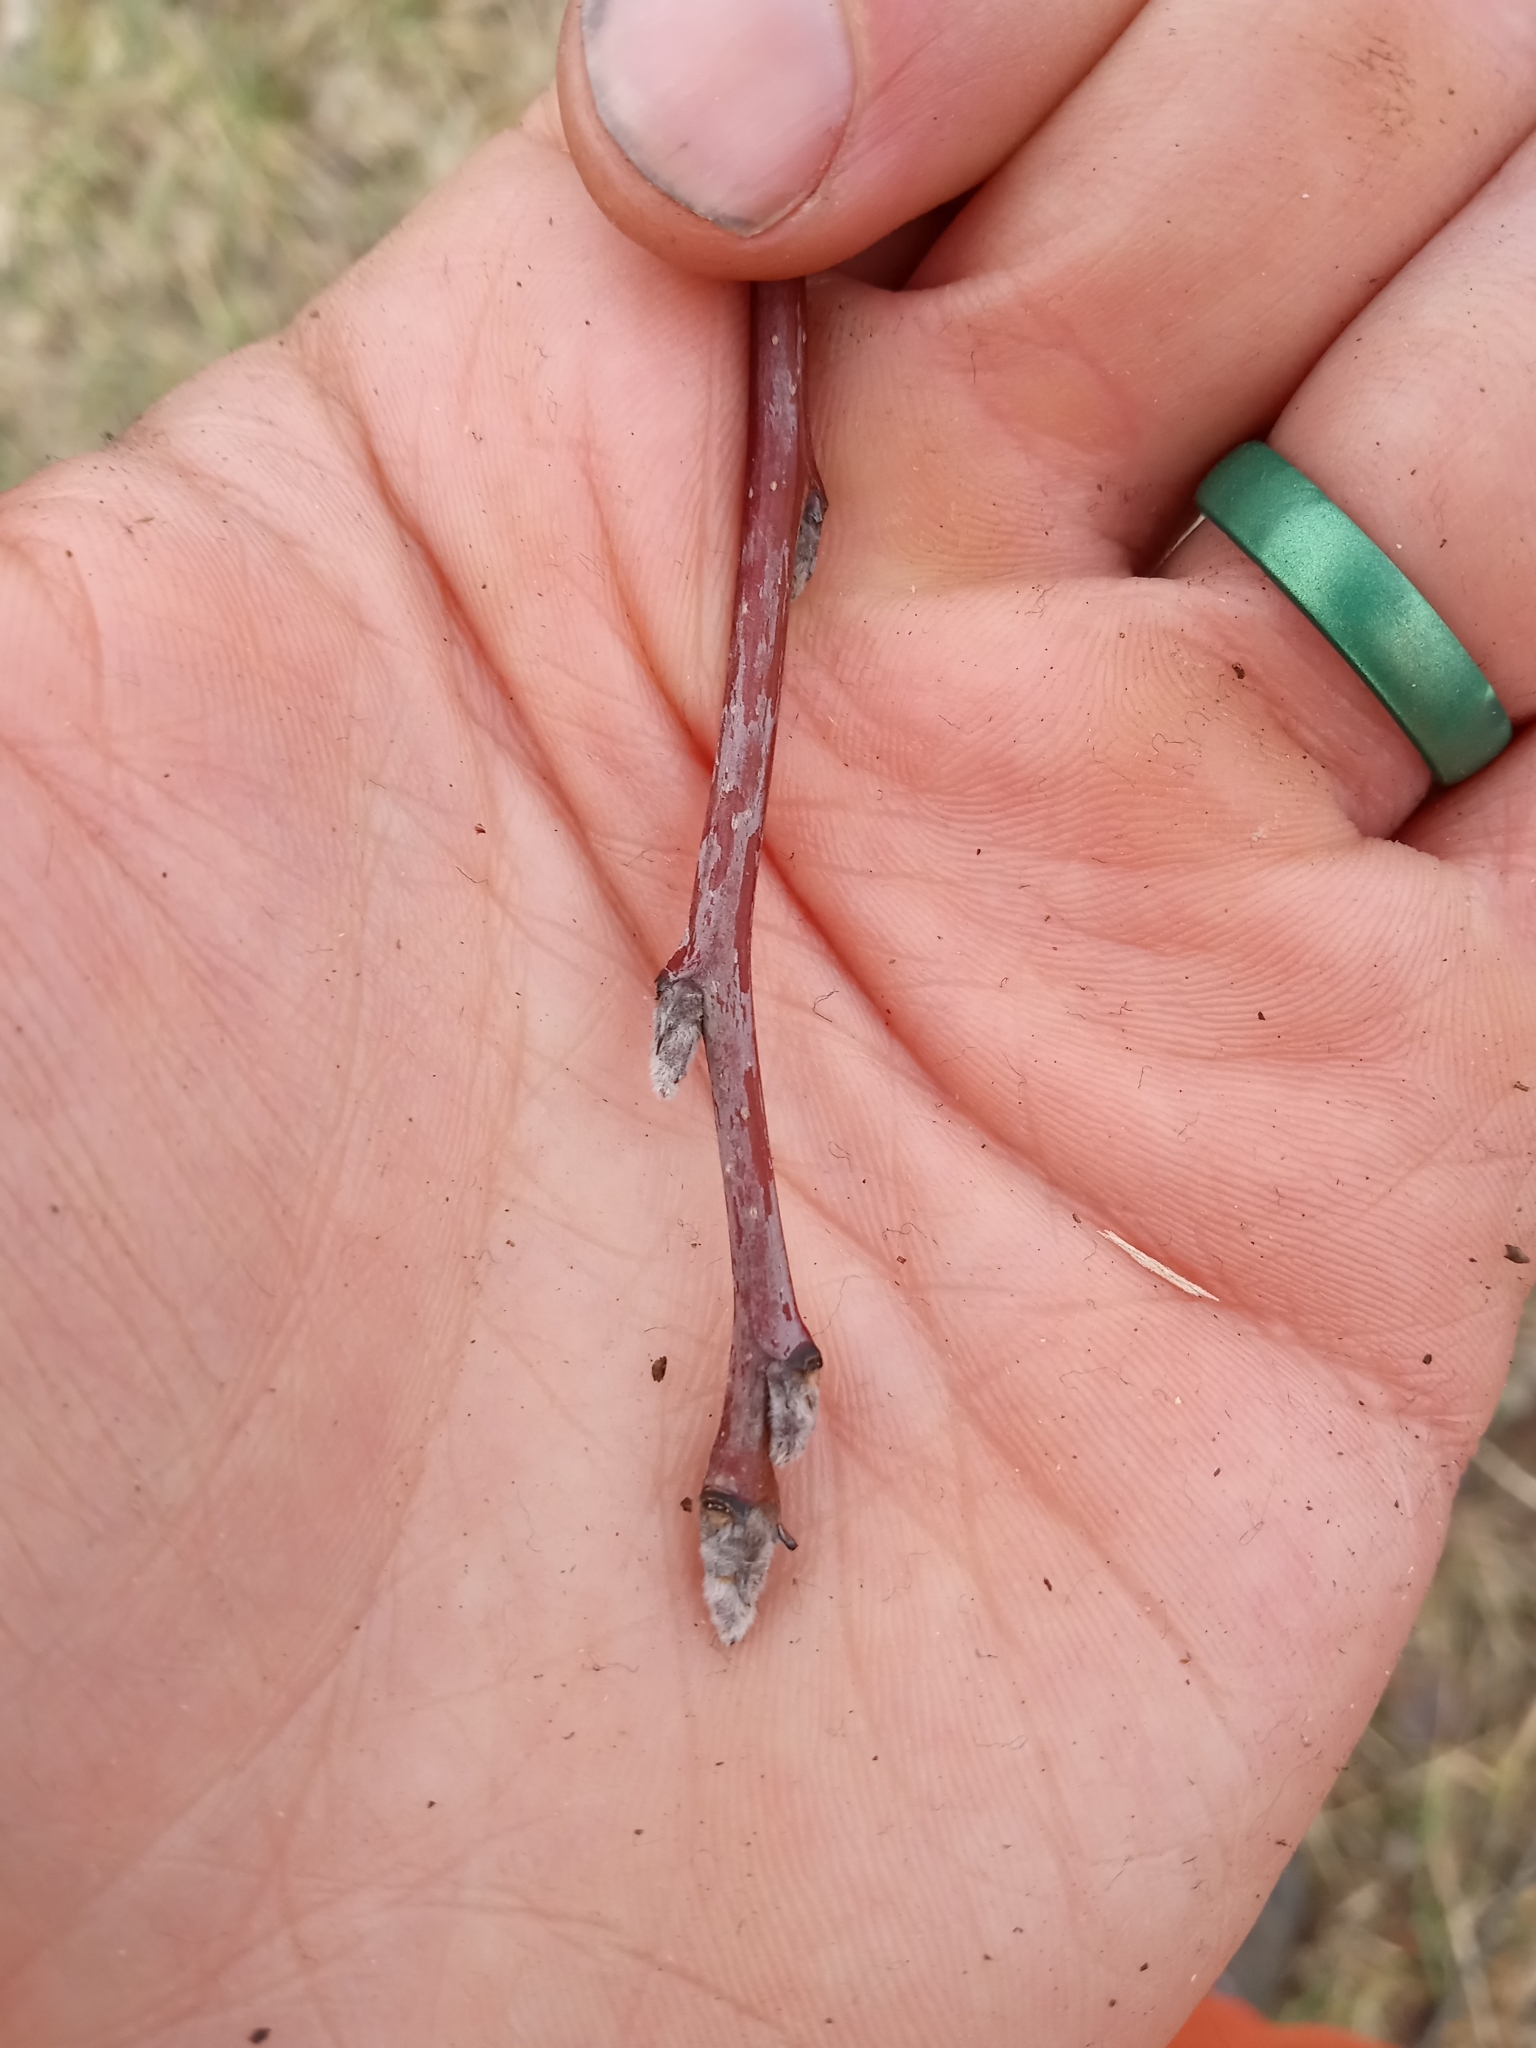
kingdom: Plantae
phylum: Tracheophyta
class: Magnoliopsida
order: Rosales
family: Rosaceae
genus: Pyrus
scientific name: Pyrus calleryana
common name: Callery pear
